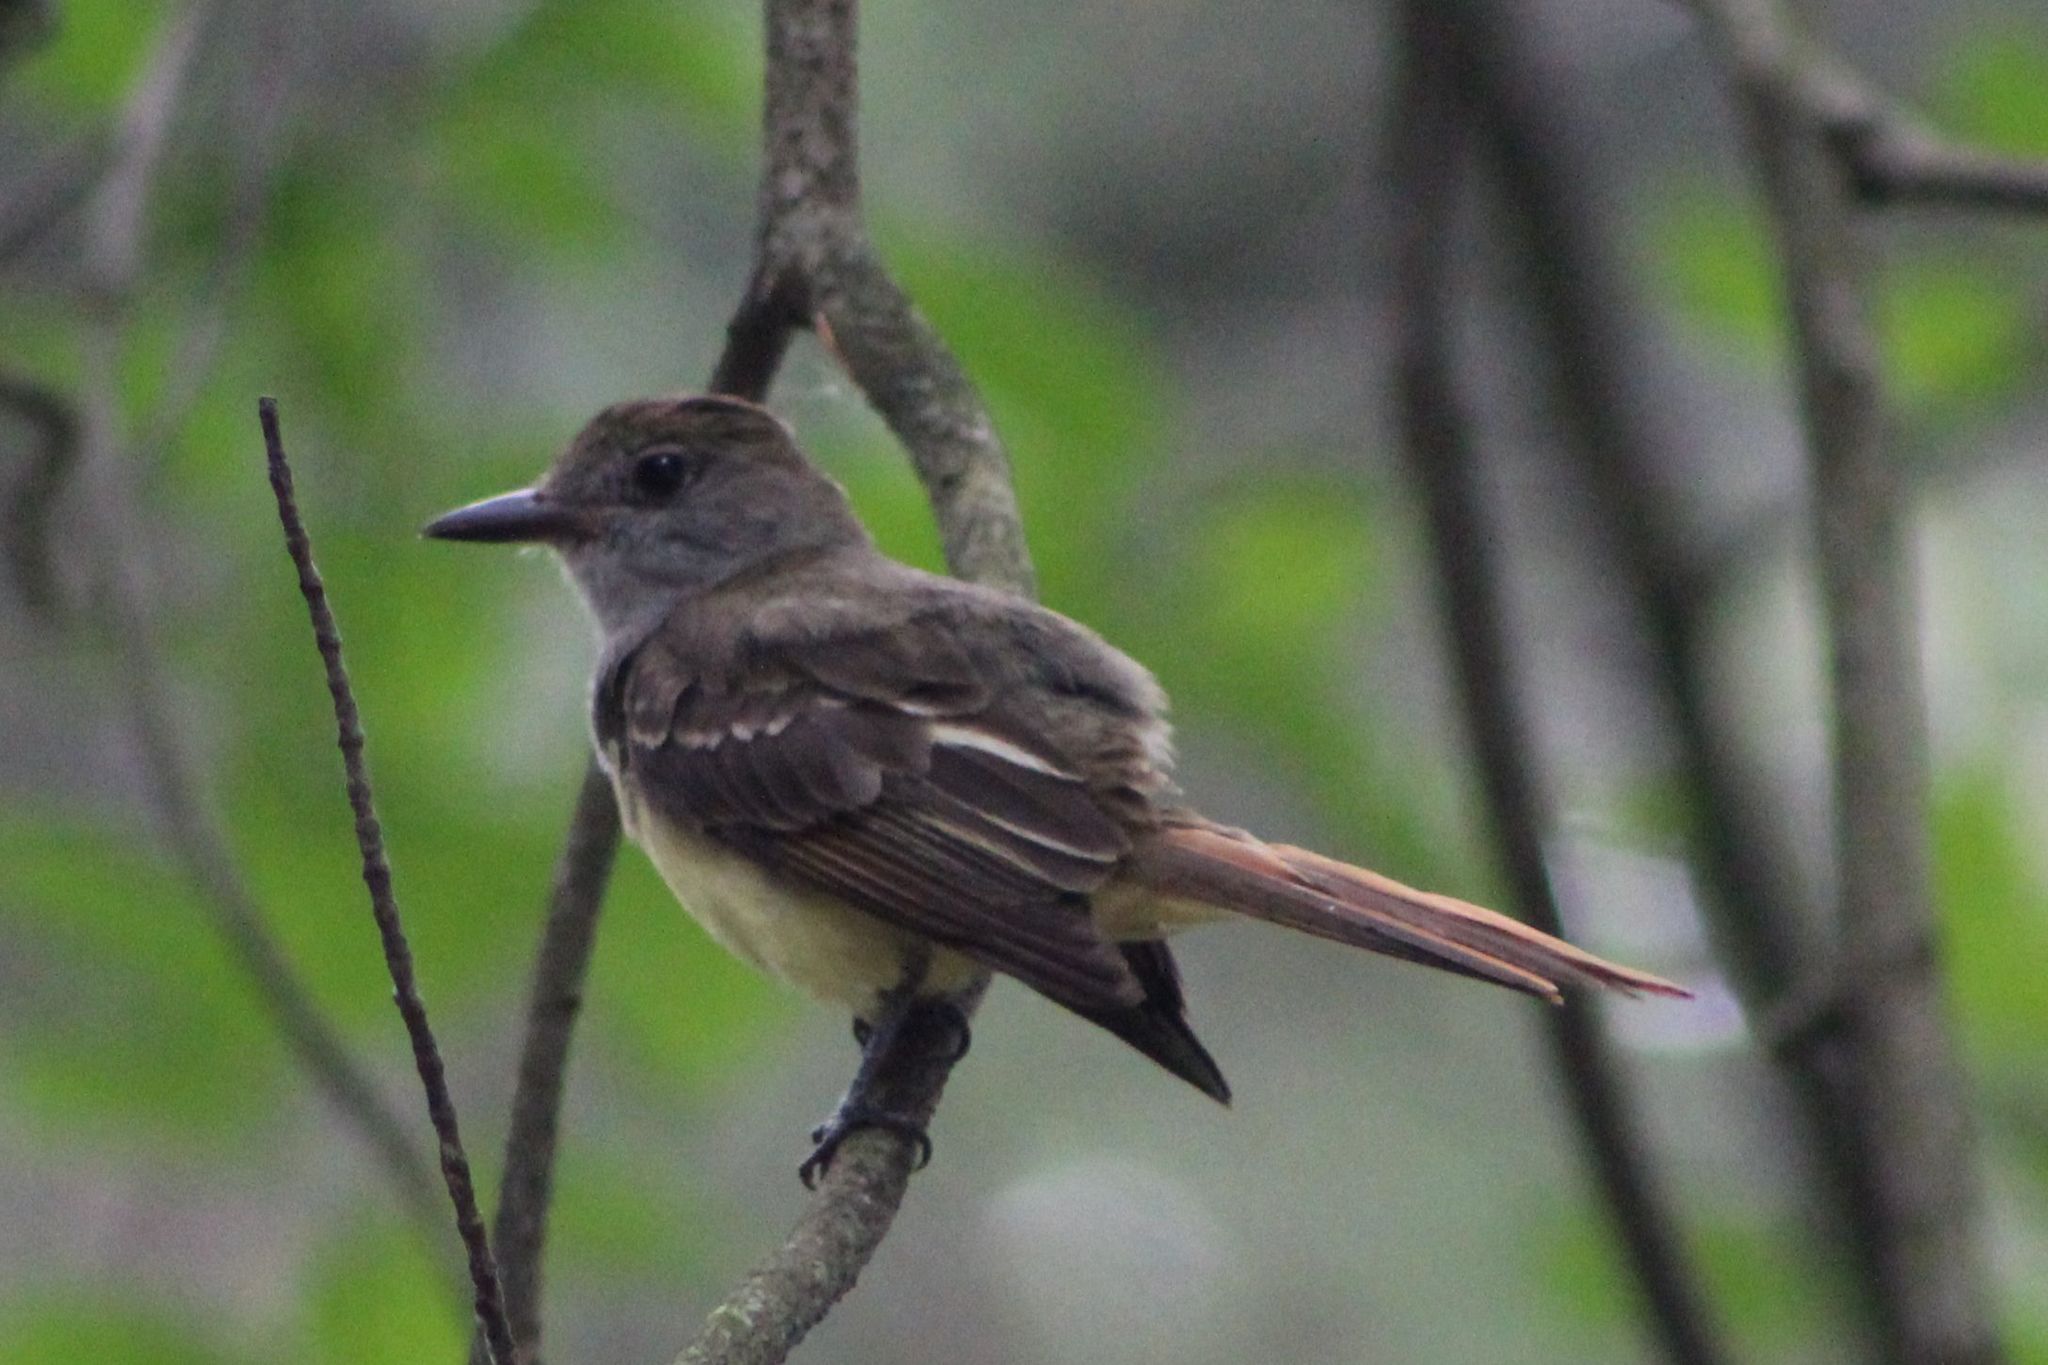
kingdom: Animalia
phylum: Chordata
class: Aves
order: Passeriformes
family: Tyrannidae
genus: Myiarchus
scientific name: Myiarchus crinitus
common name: Great crested flycatcher
